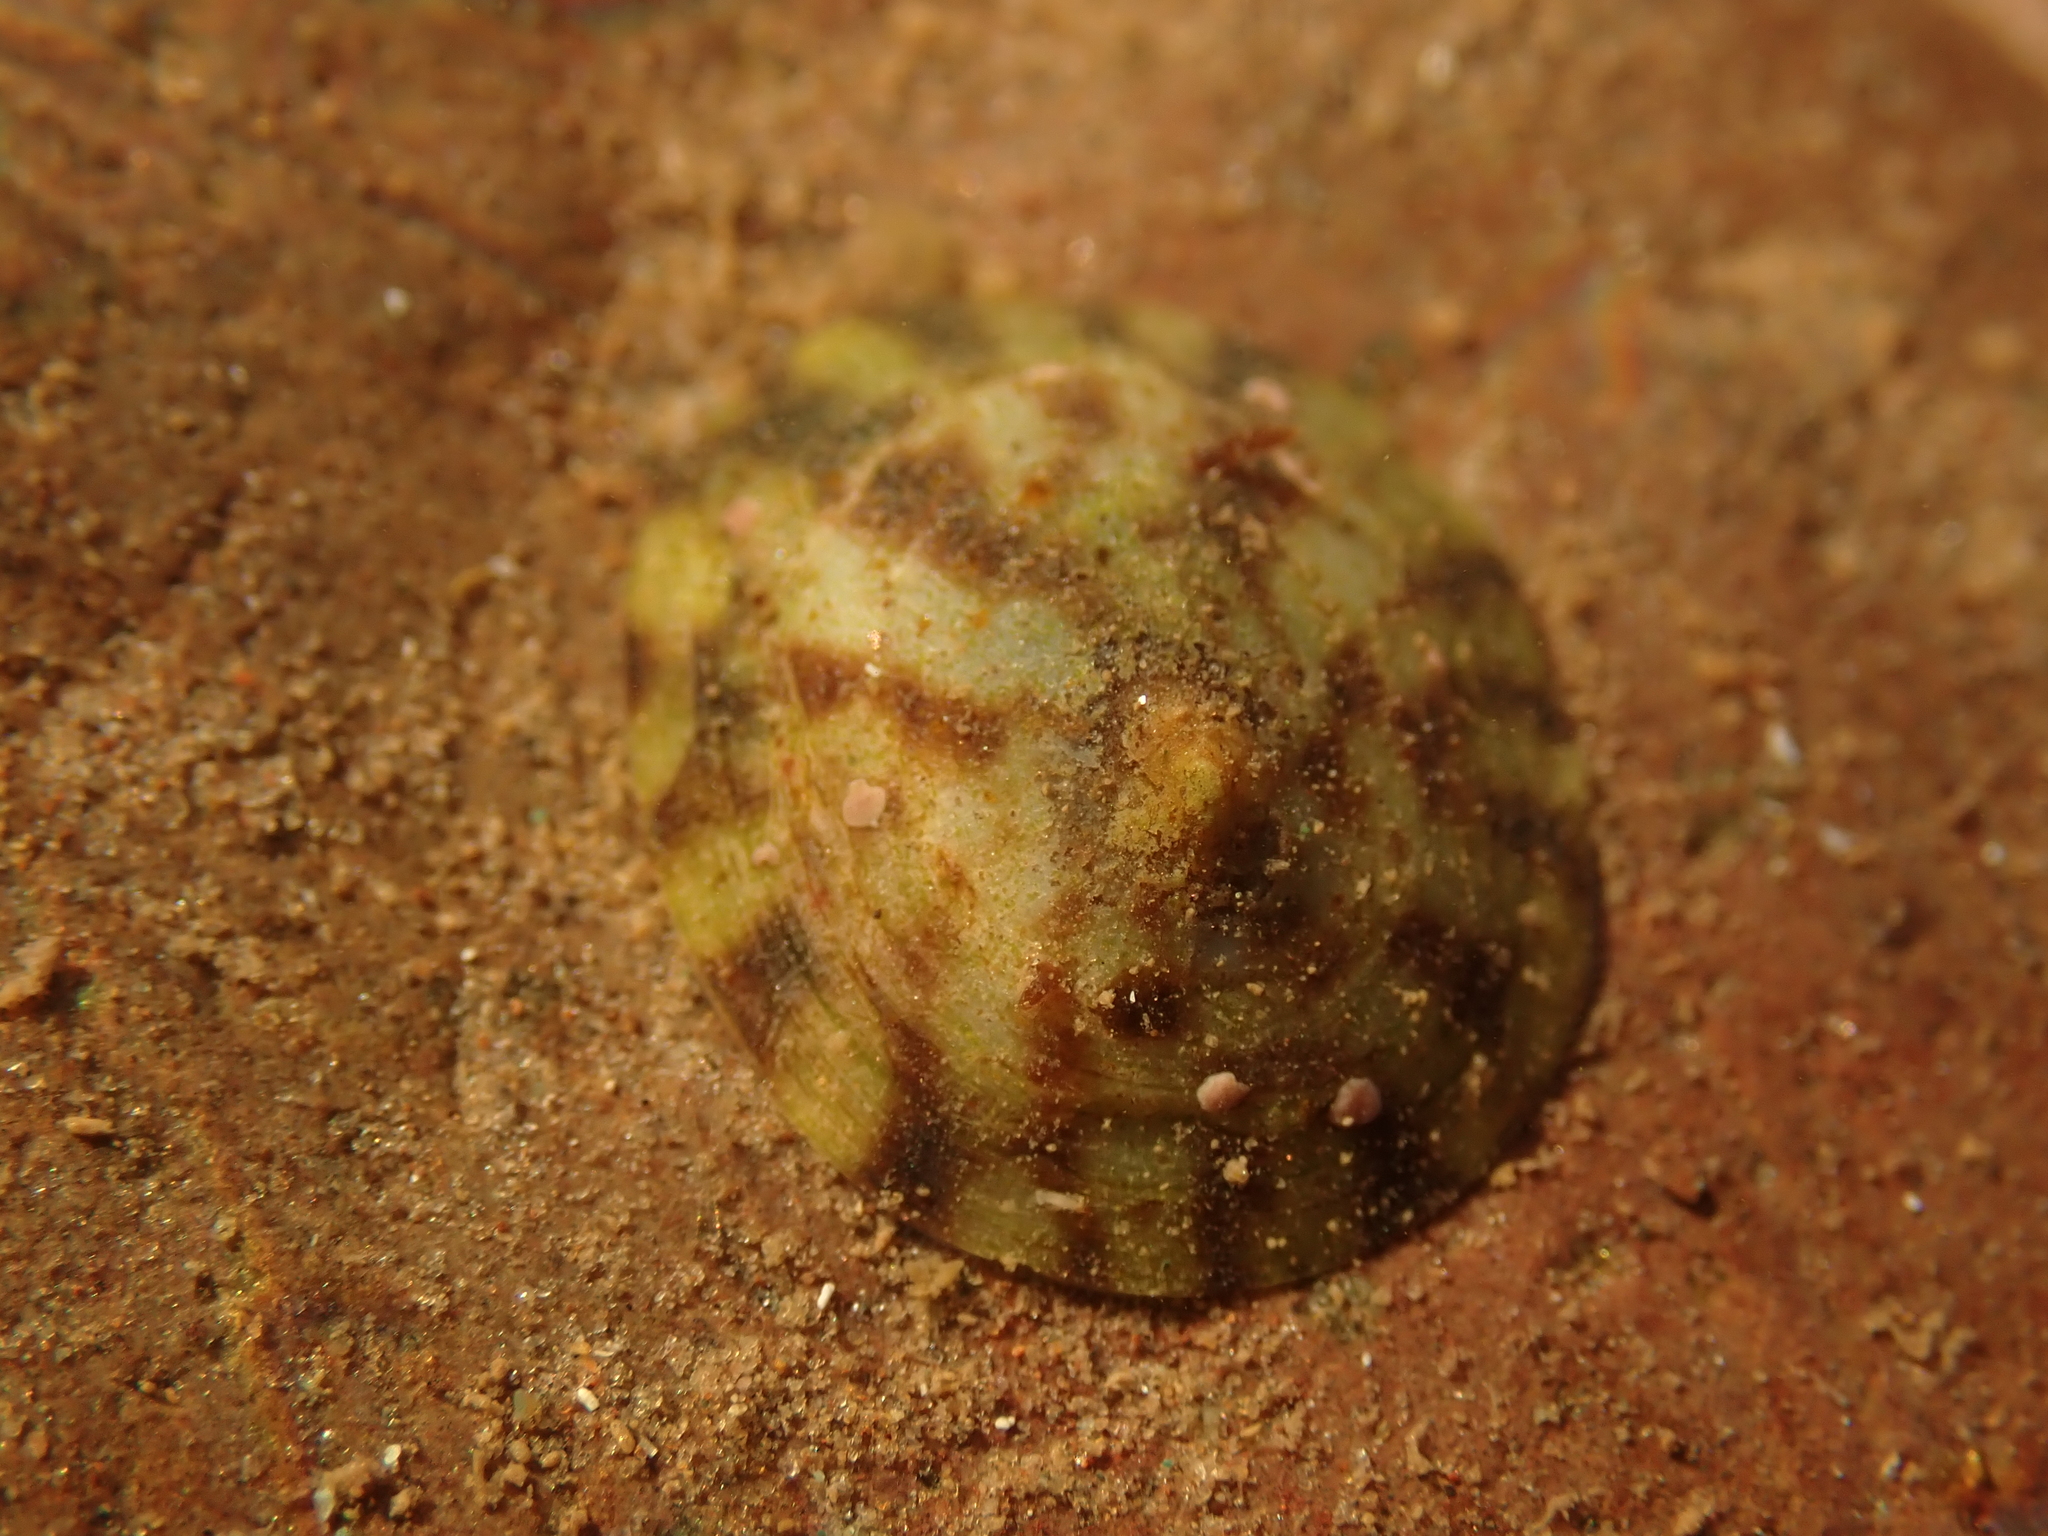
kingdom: Animalia
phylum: Mollusca
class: Gastropoda
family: Lottiidae
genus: Testudinalia
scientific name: Testudinalia testudinalis
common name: Common tortoiseshell limpet
